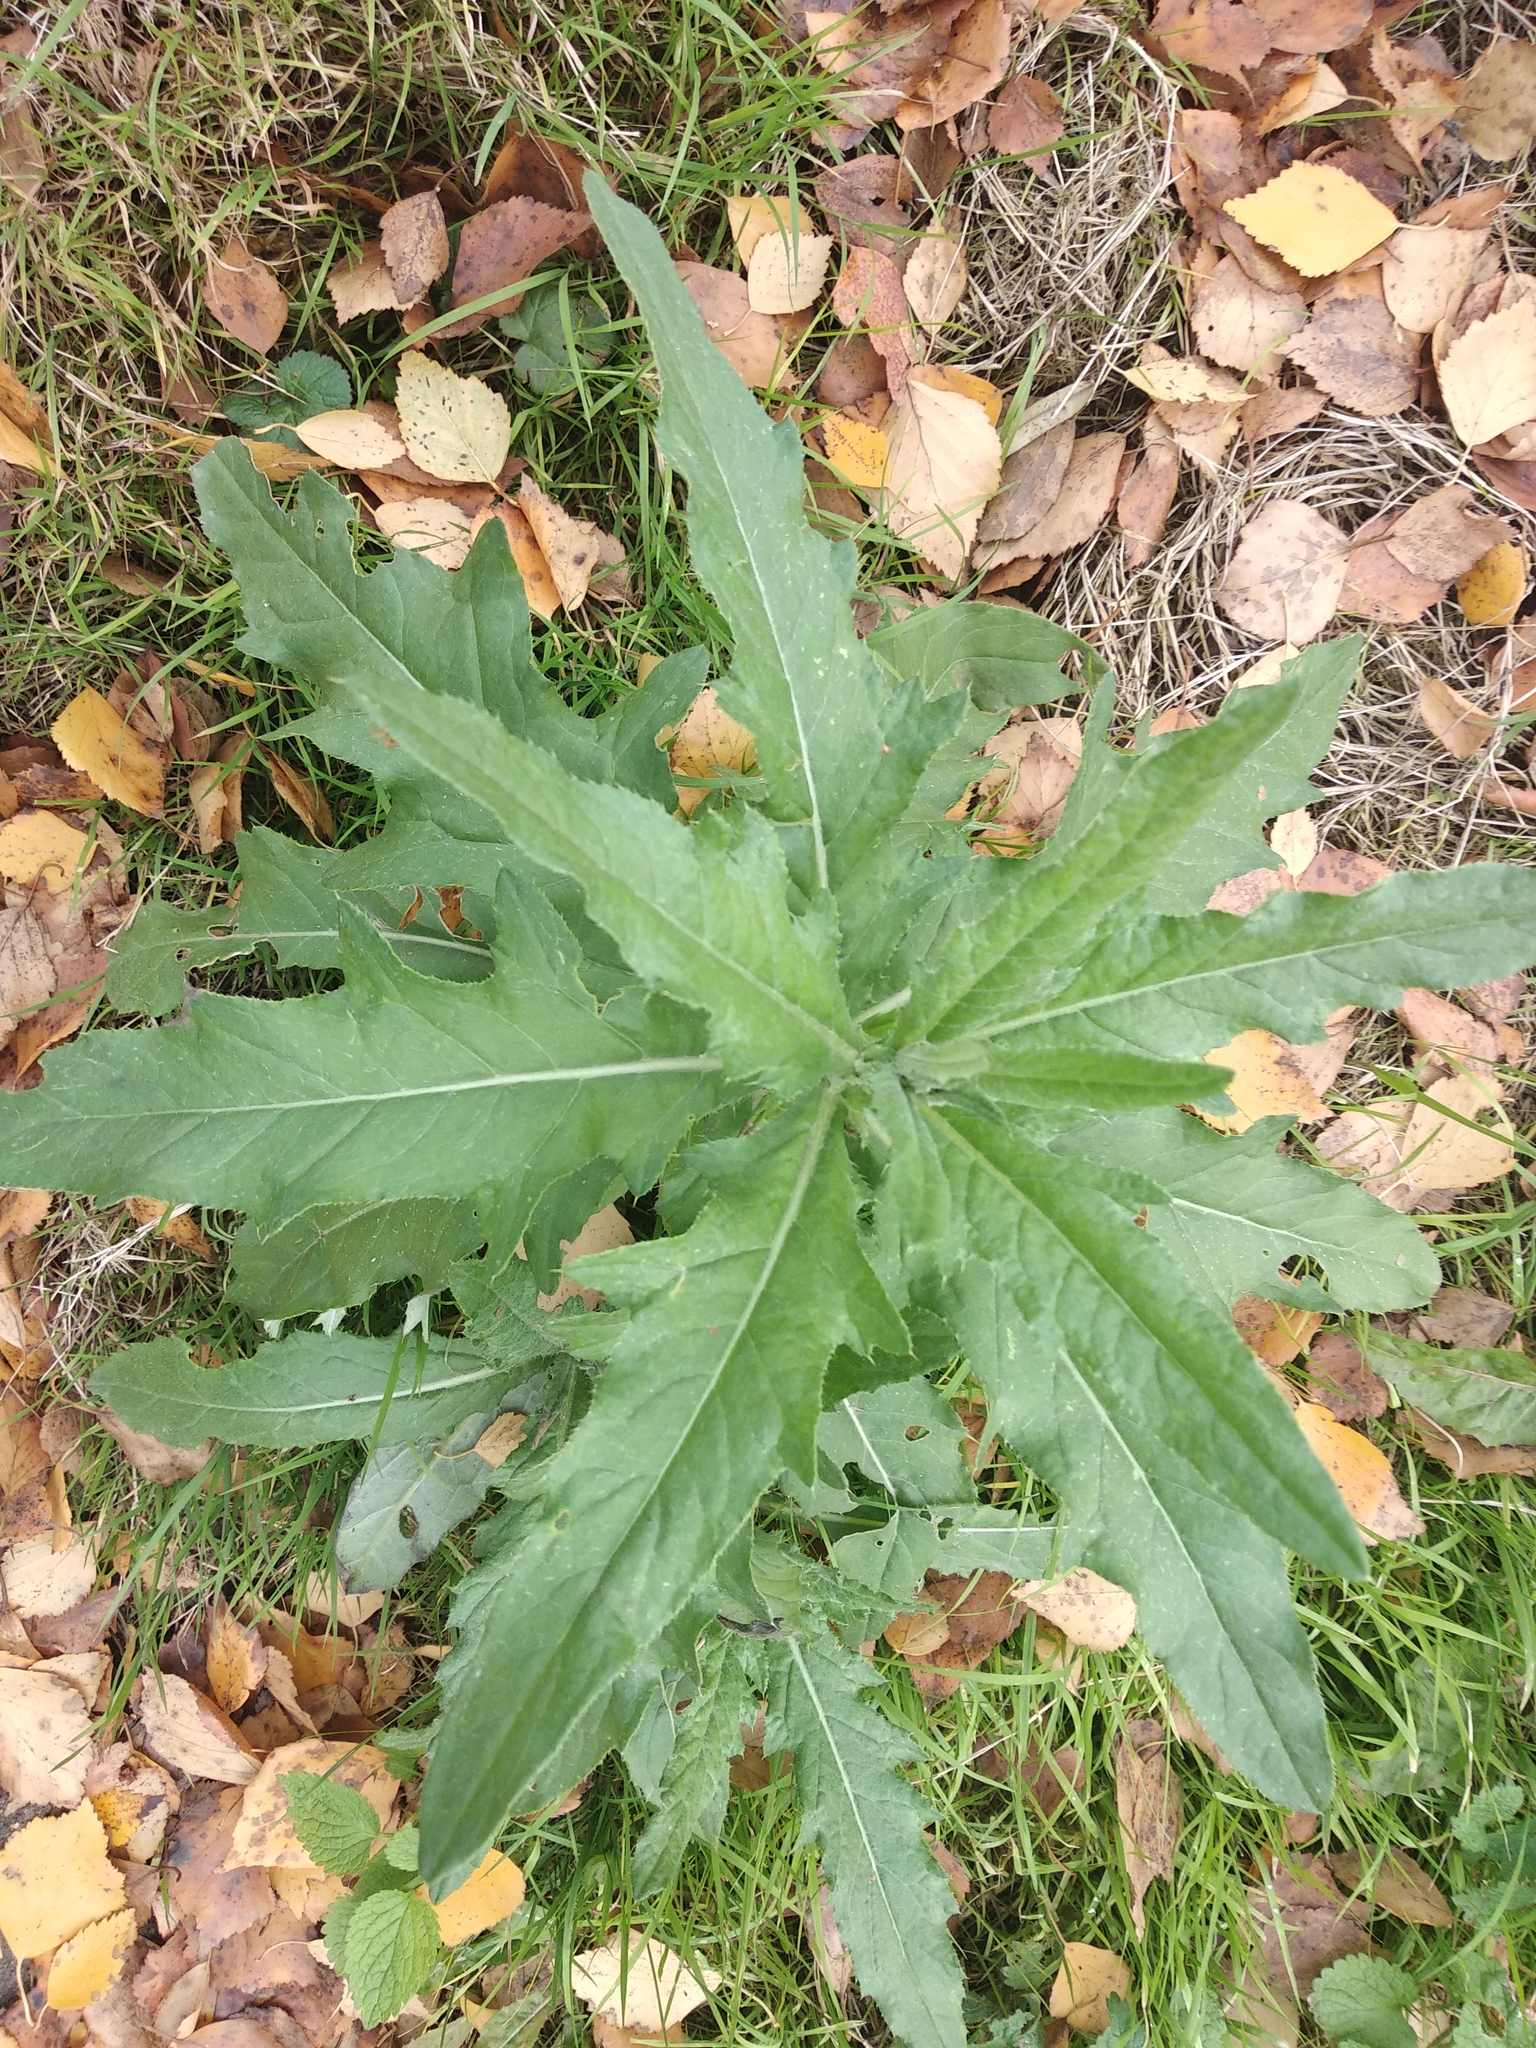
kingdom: Plantae
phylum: Tracheophyta
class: Magnoliopsida
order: Asterales
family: Asteraceae
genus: Cirsium
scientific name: Cirsium arvense
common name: Creeping thistle
